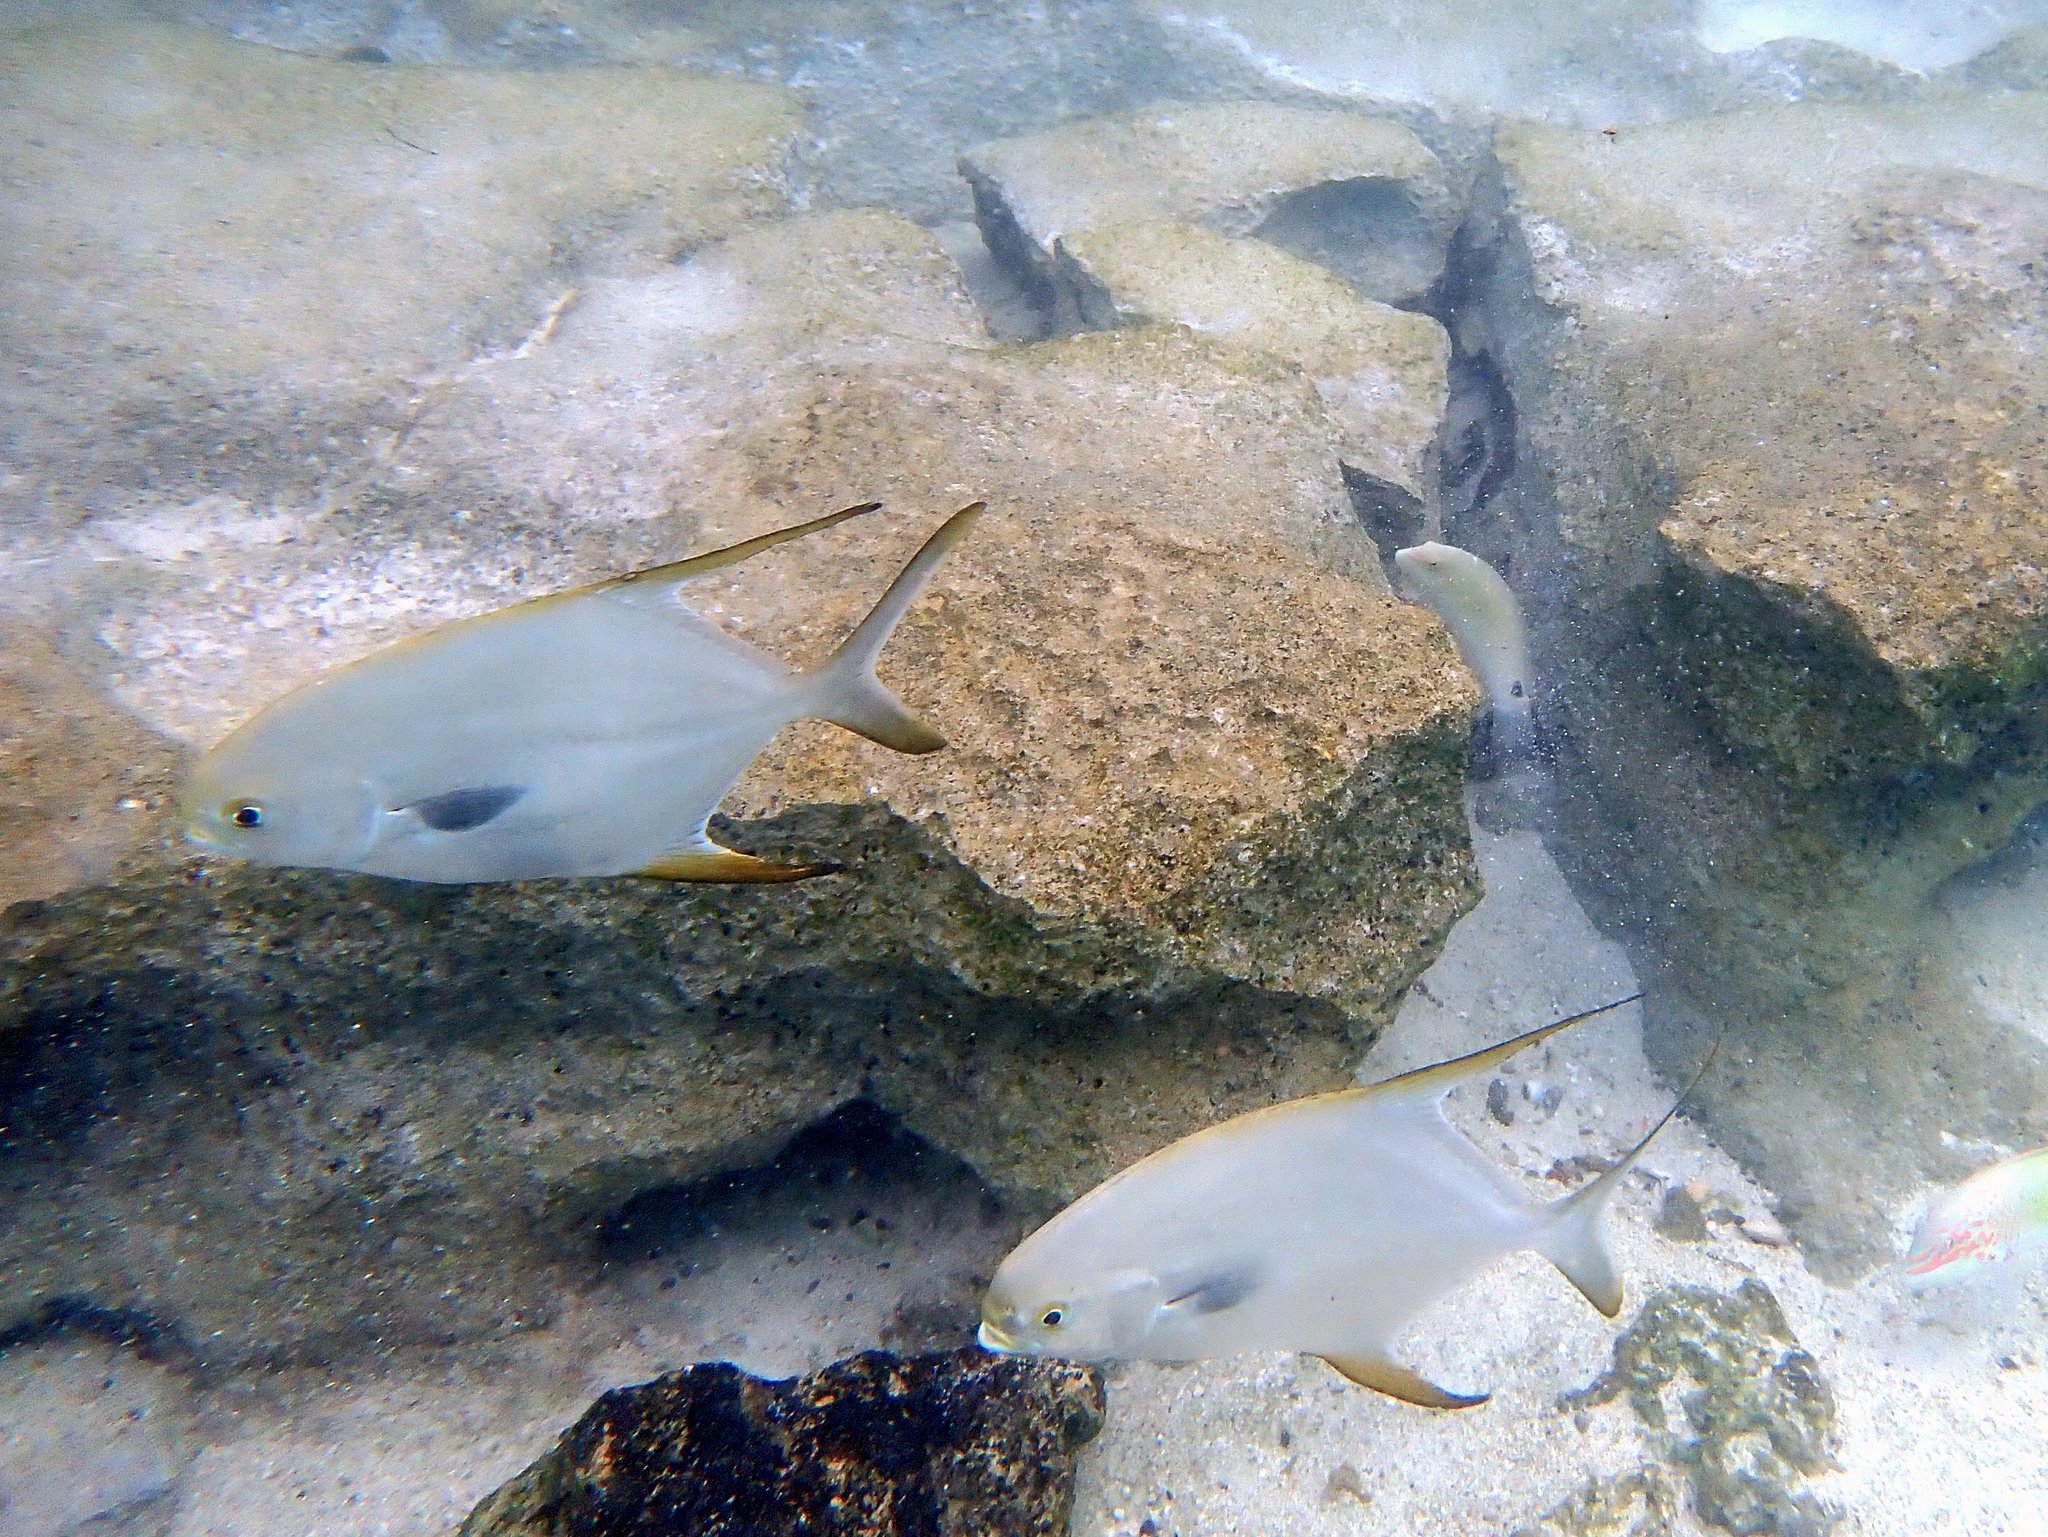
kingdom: Animalia
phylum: Chordata
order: Perciformes
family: Carangidae
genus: Trachinotus
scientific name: Trachinotus blochii
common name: Snubnose pompano
